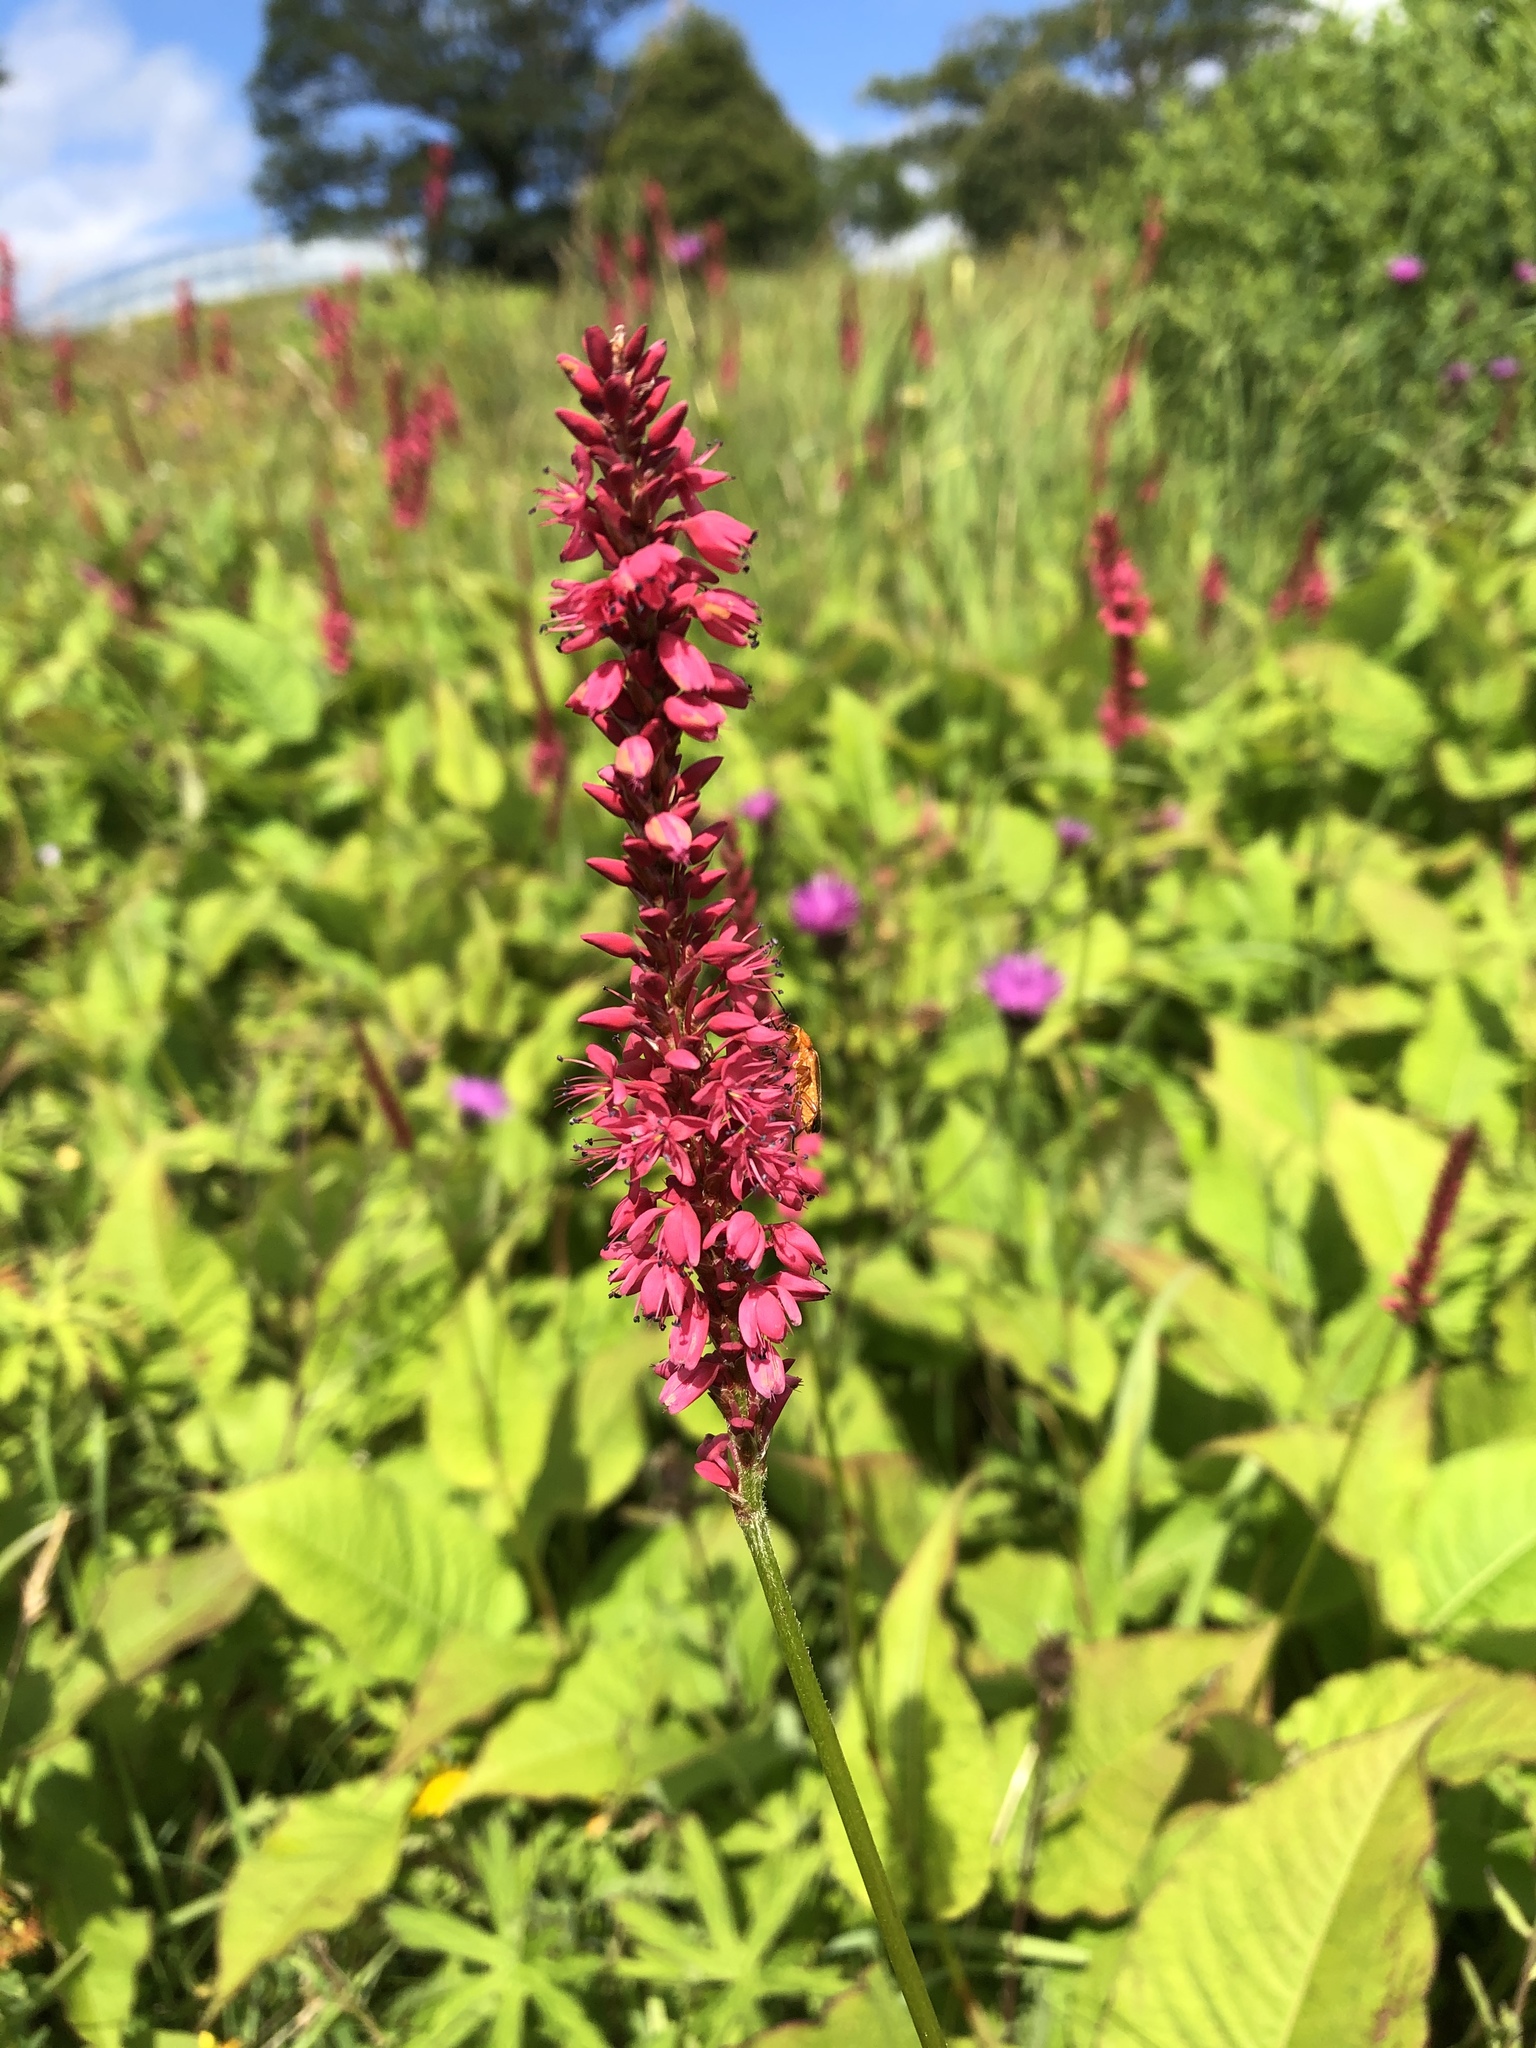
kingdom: Plantae
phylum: Tracheophyta
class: Magnoliopsida
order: Caryophyllales
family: Polygonaceae
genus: Bistorta
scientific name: Bistorta amplexicaulis
